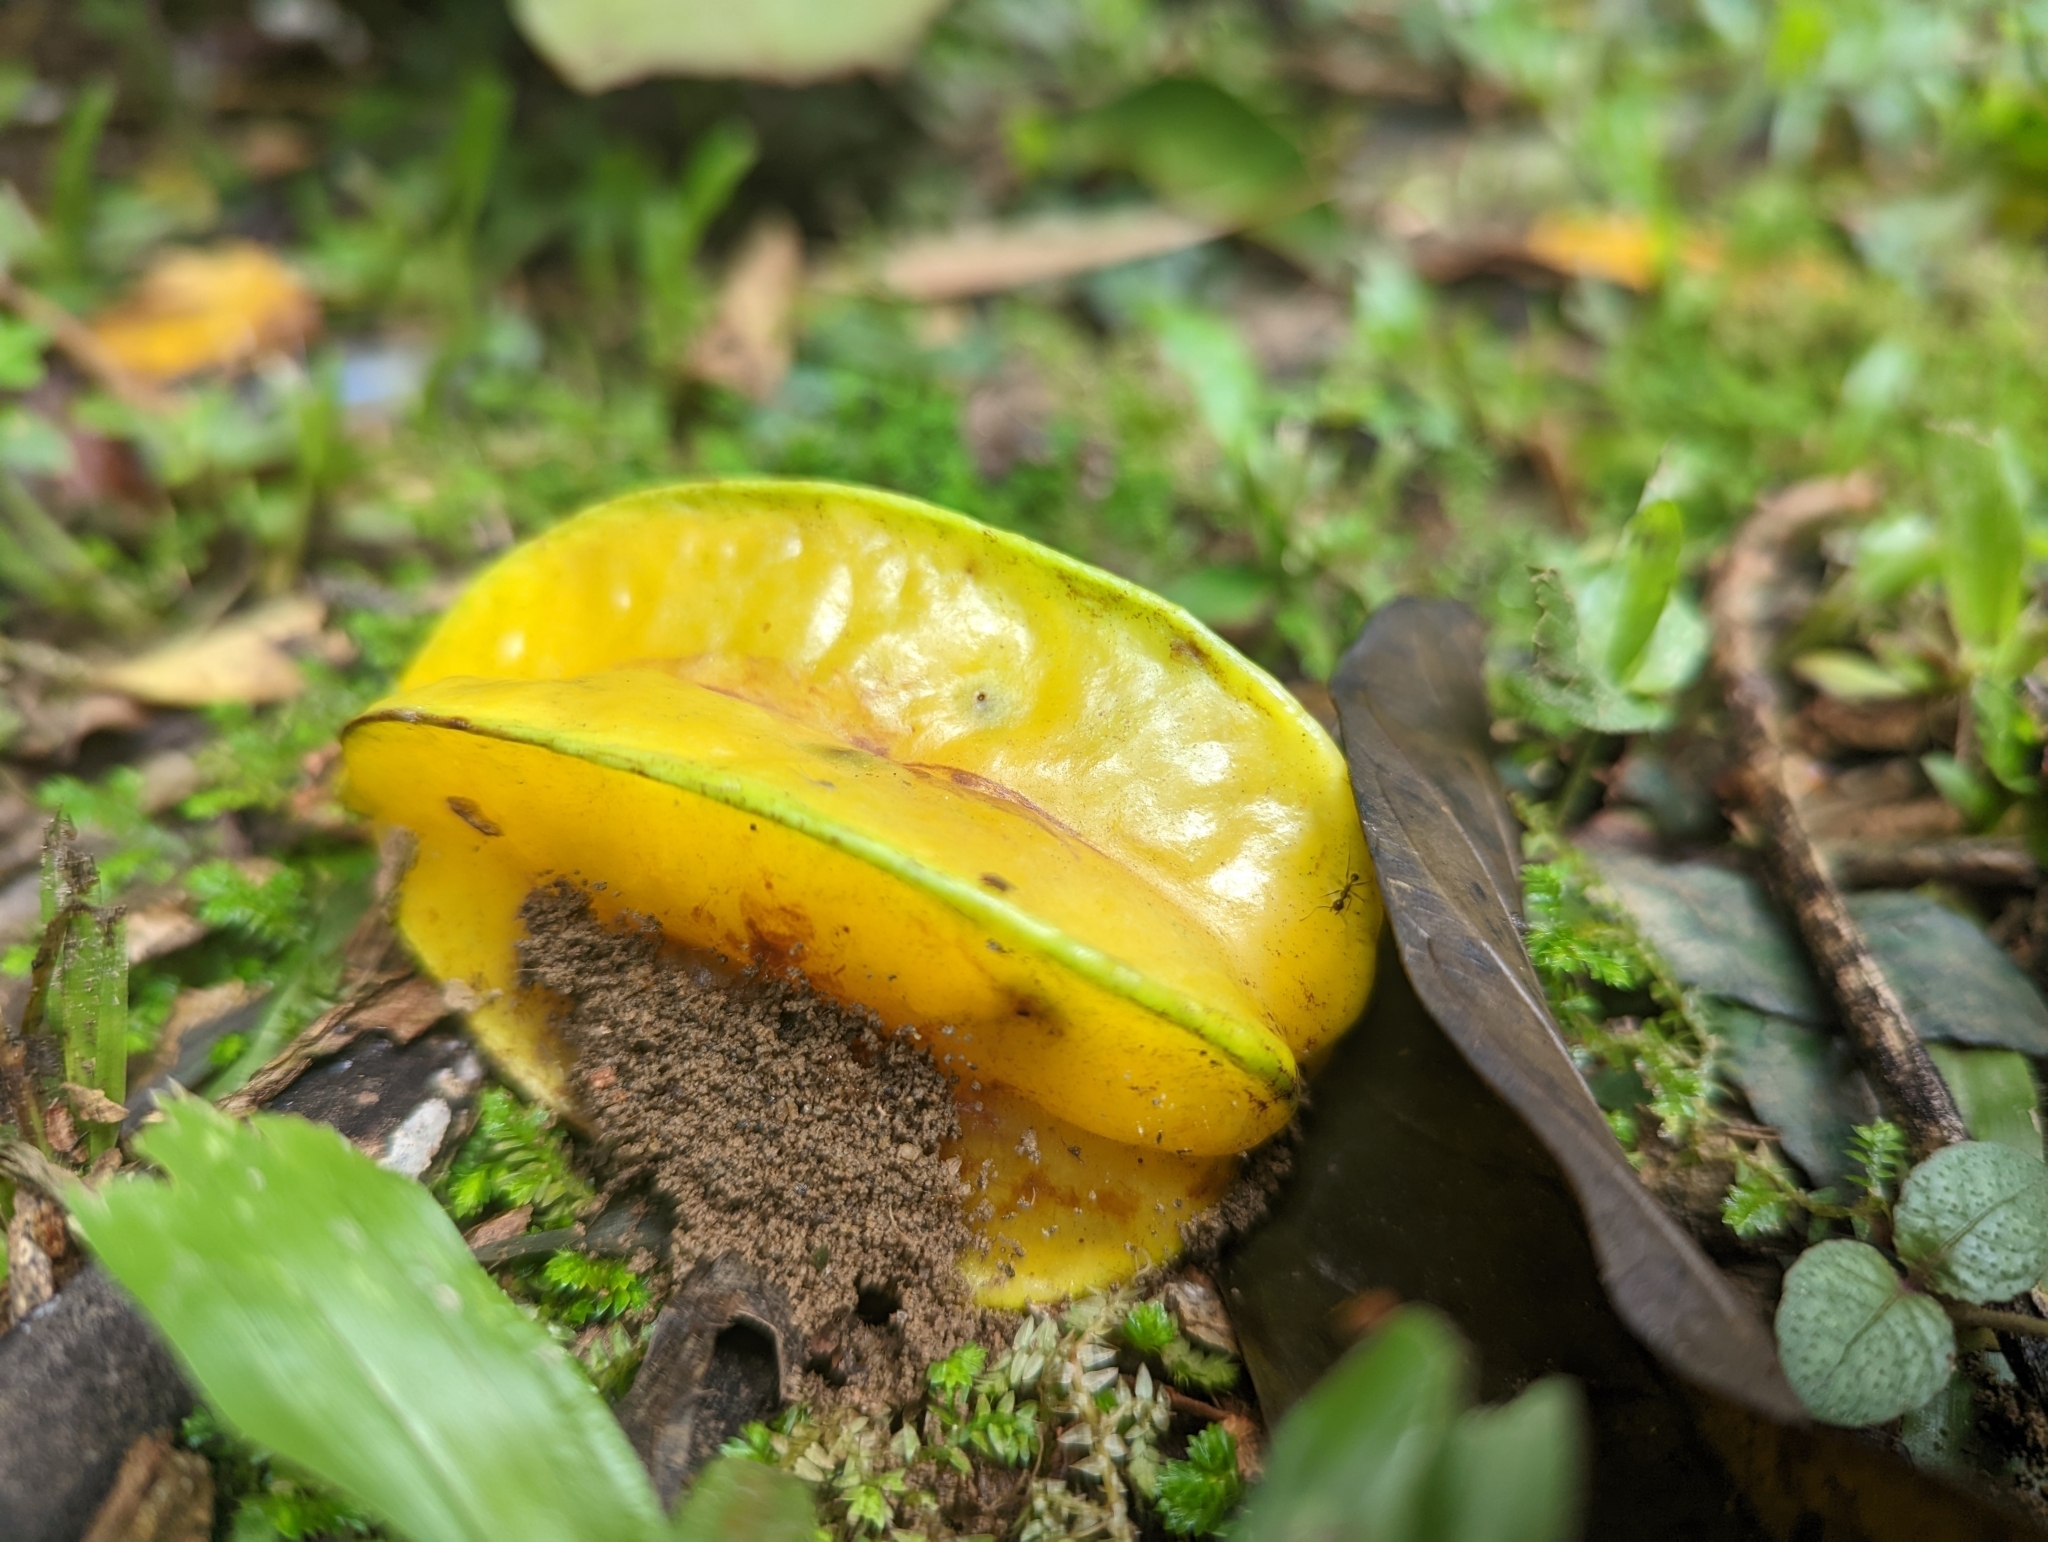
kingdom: Plantae
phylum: Tracheophyta
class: Magnoliopsida
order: Oxalidales
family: Oxalidaceae
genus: Averrhoa
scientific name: Averrhoa carambola
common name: Blimbing
